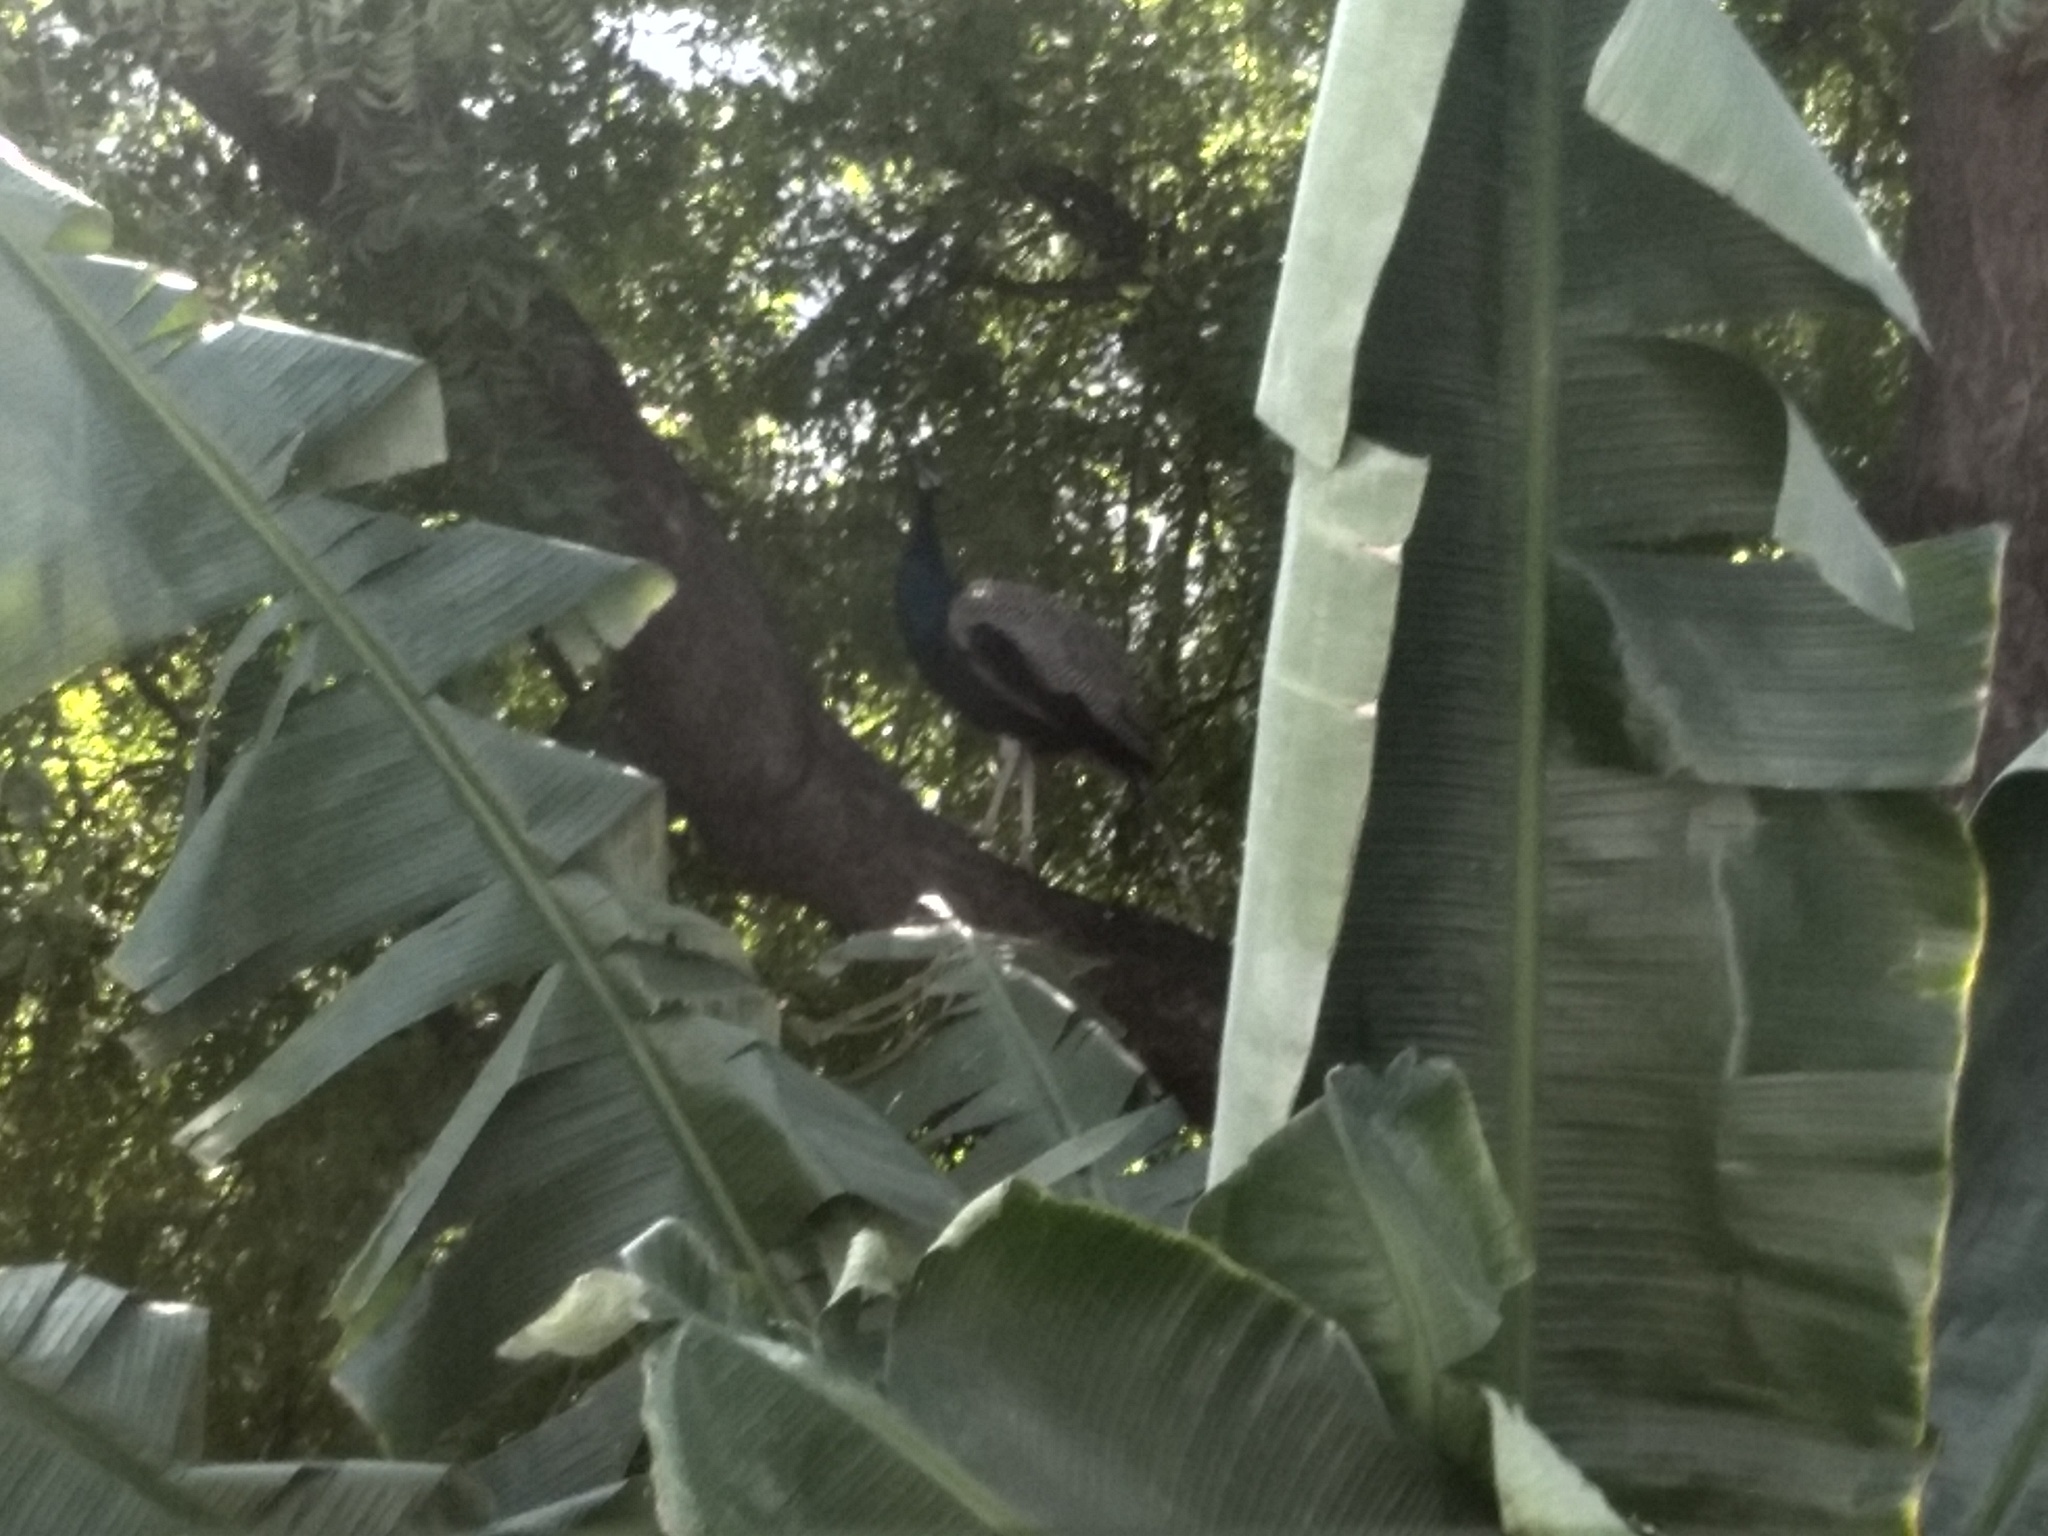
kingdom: Animalia
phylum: Chordata
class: Aves
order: Galliformes
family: Phasianidae
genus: Pavo
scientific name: Pavo cristatus
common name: Indian peafowl
